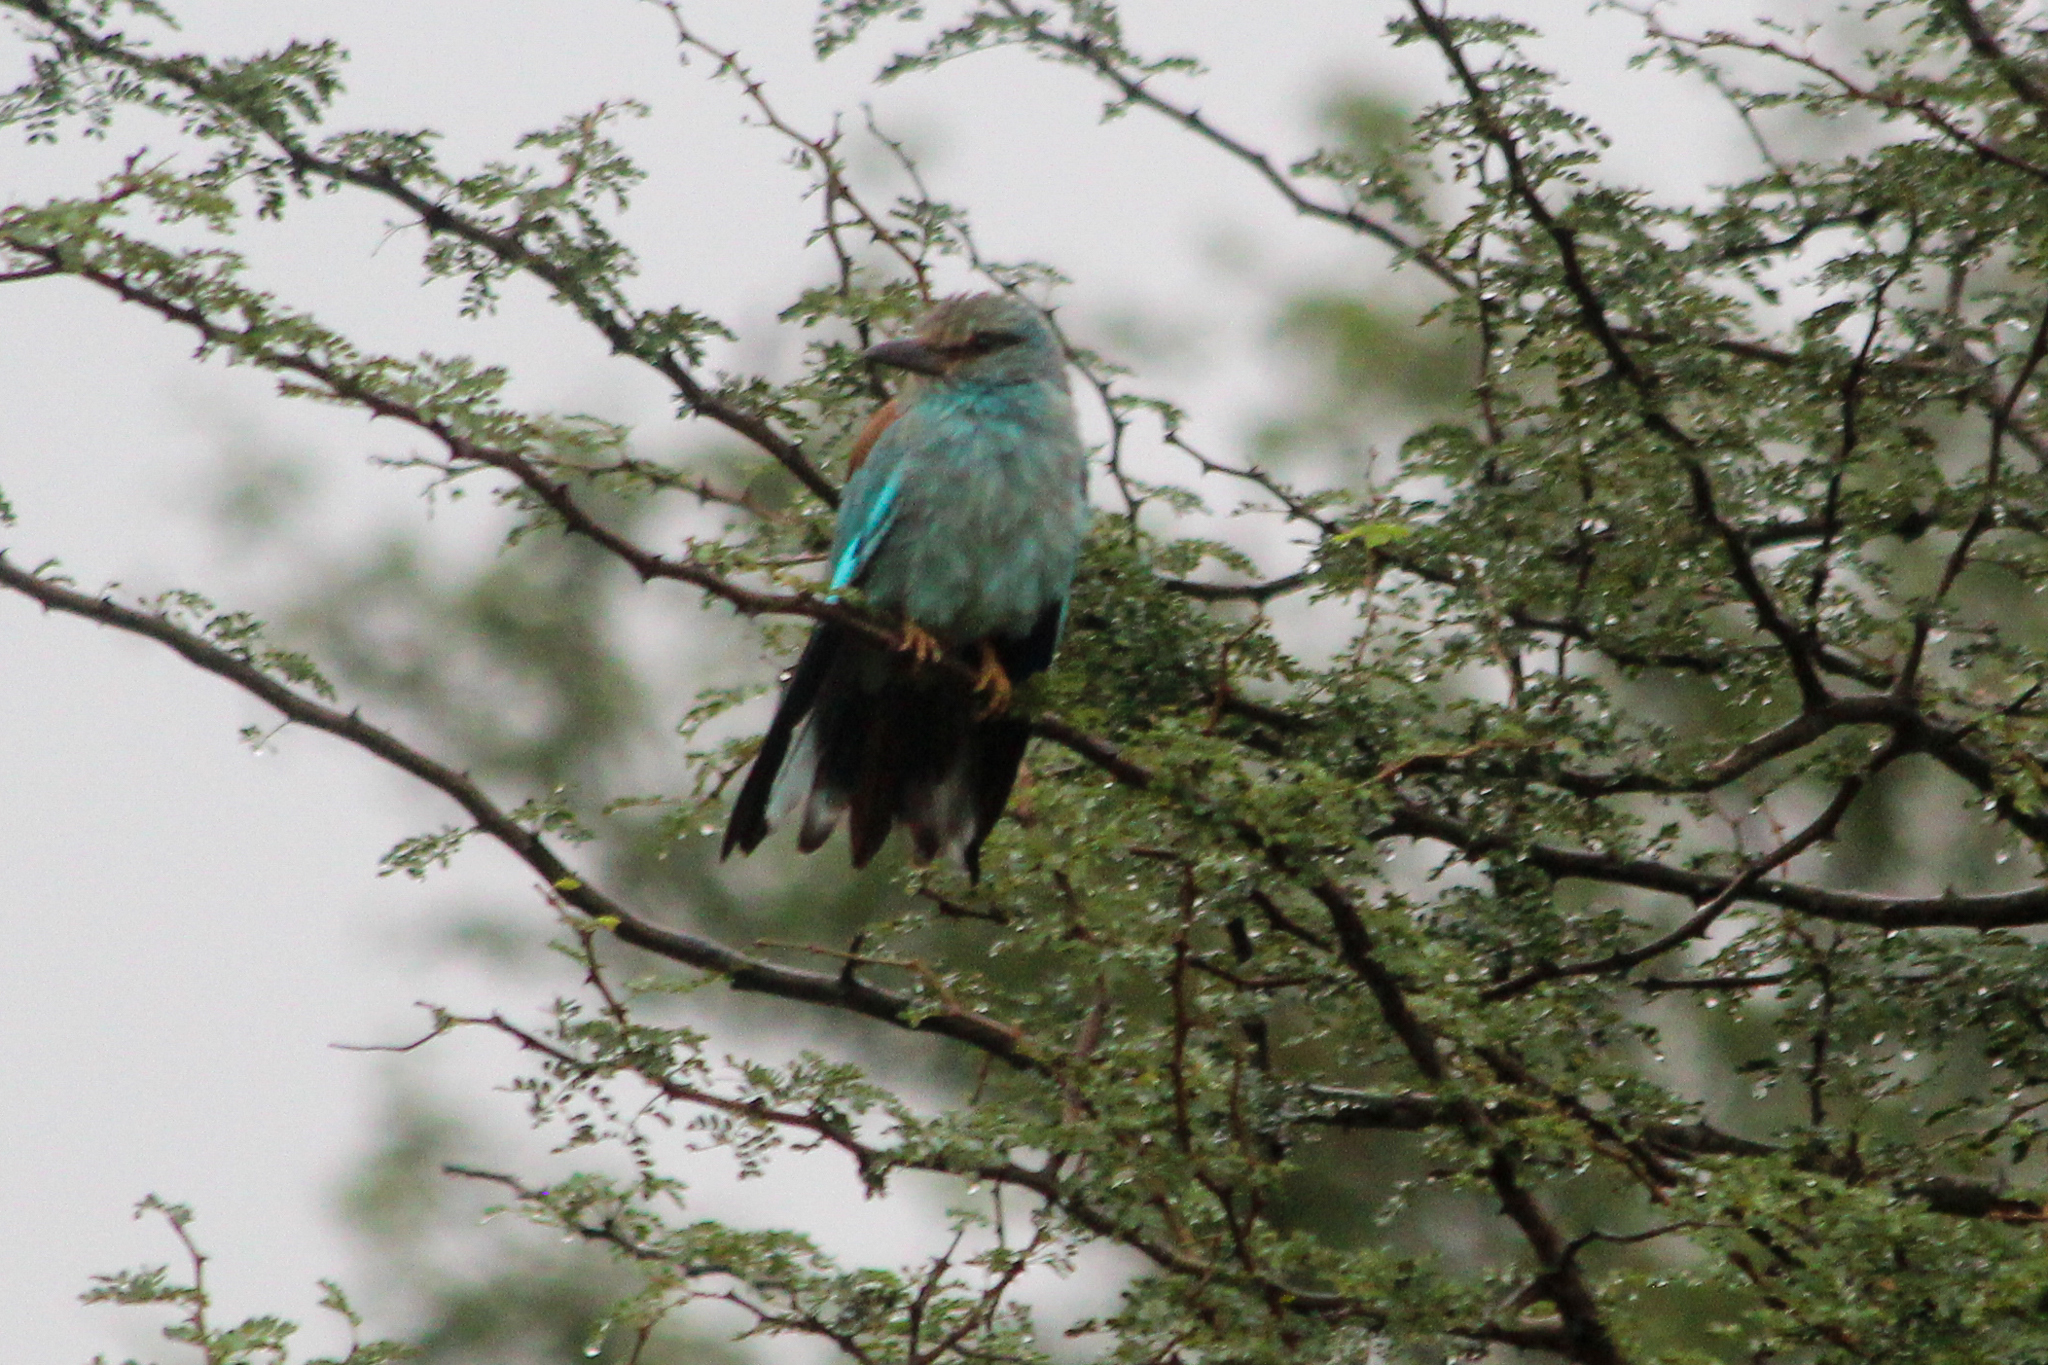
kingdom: Animalia
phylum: Chordata
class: Aves
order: Coraciiformes
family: Coraciidae
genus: Coracias
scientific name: Coracias garrulus
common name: European roller
